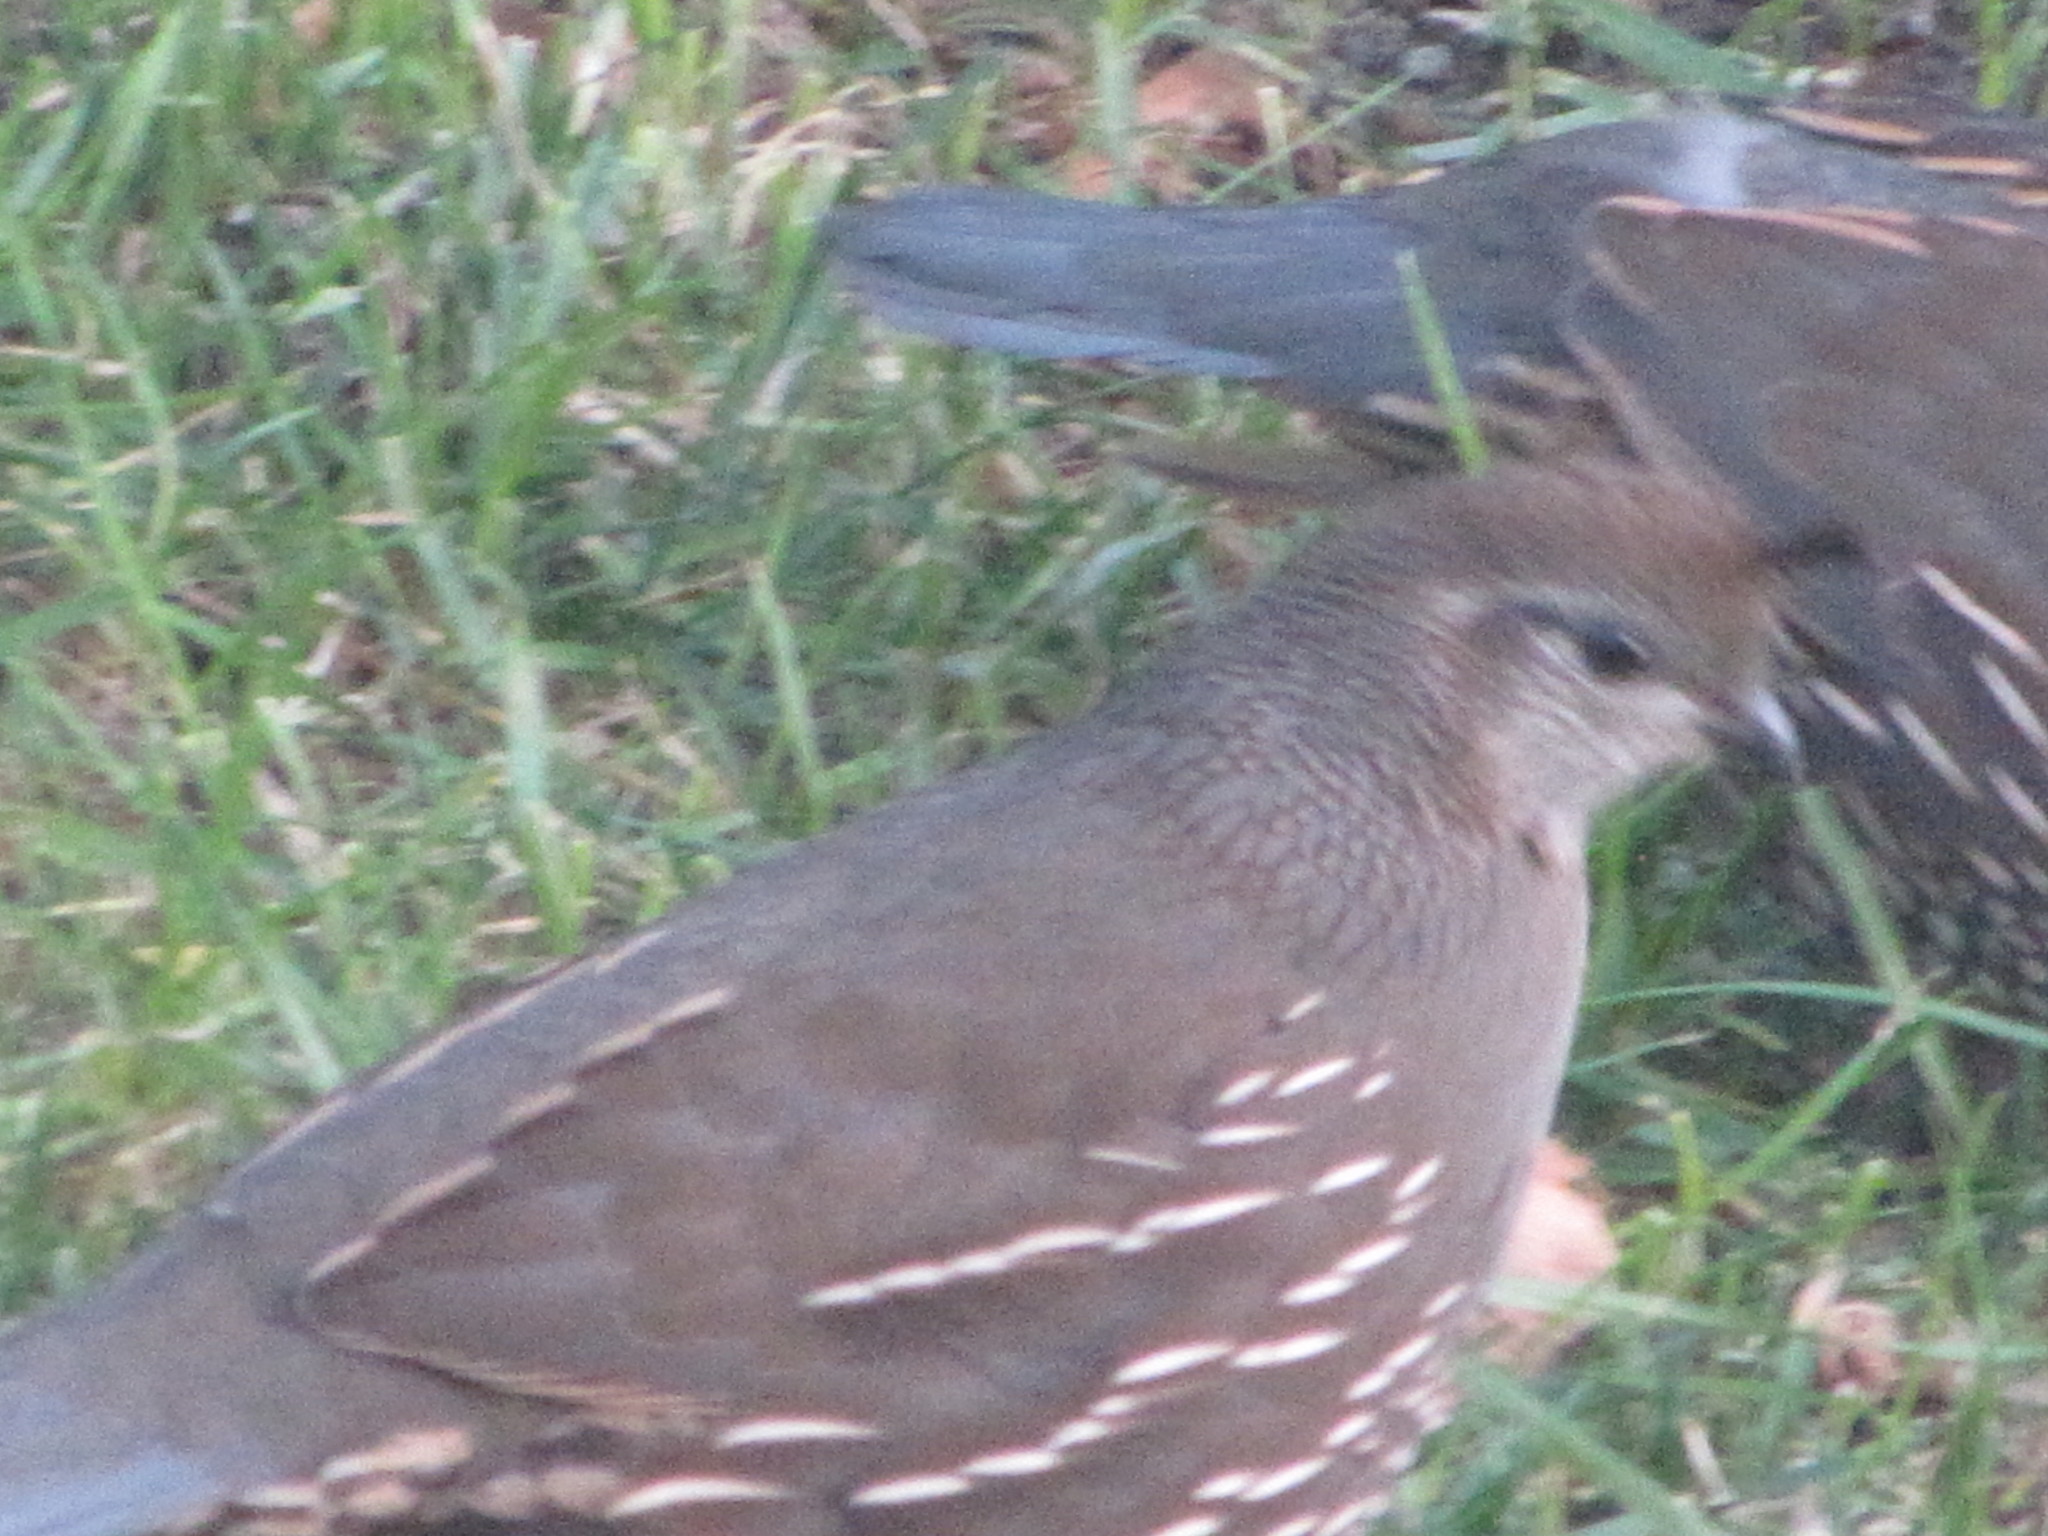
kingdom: Animalia
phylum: Chordata
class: Aves
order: Galliformes
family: Odontophoridae
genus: Callipepla
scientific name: Callipepla californica
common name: California quail
